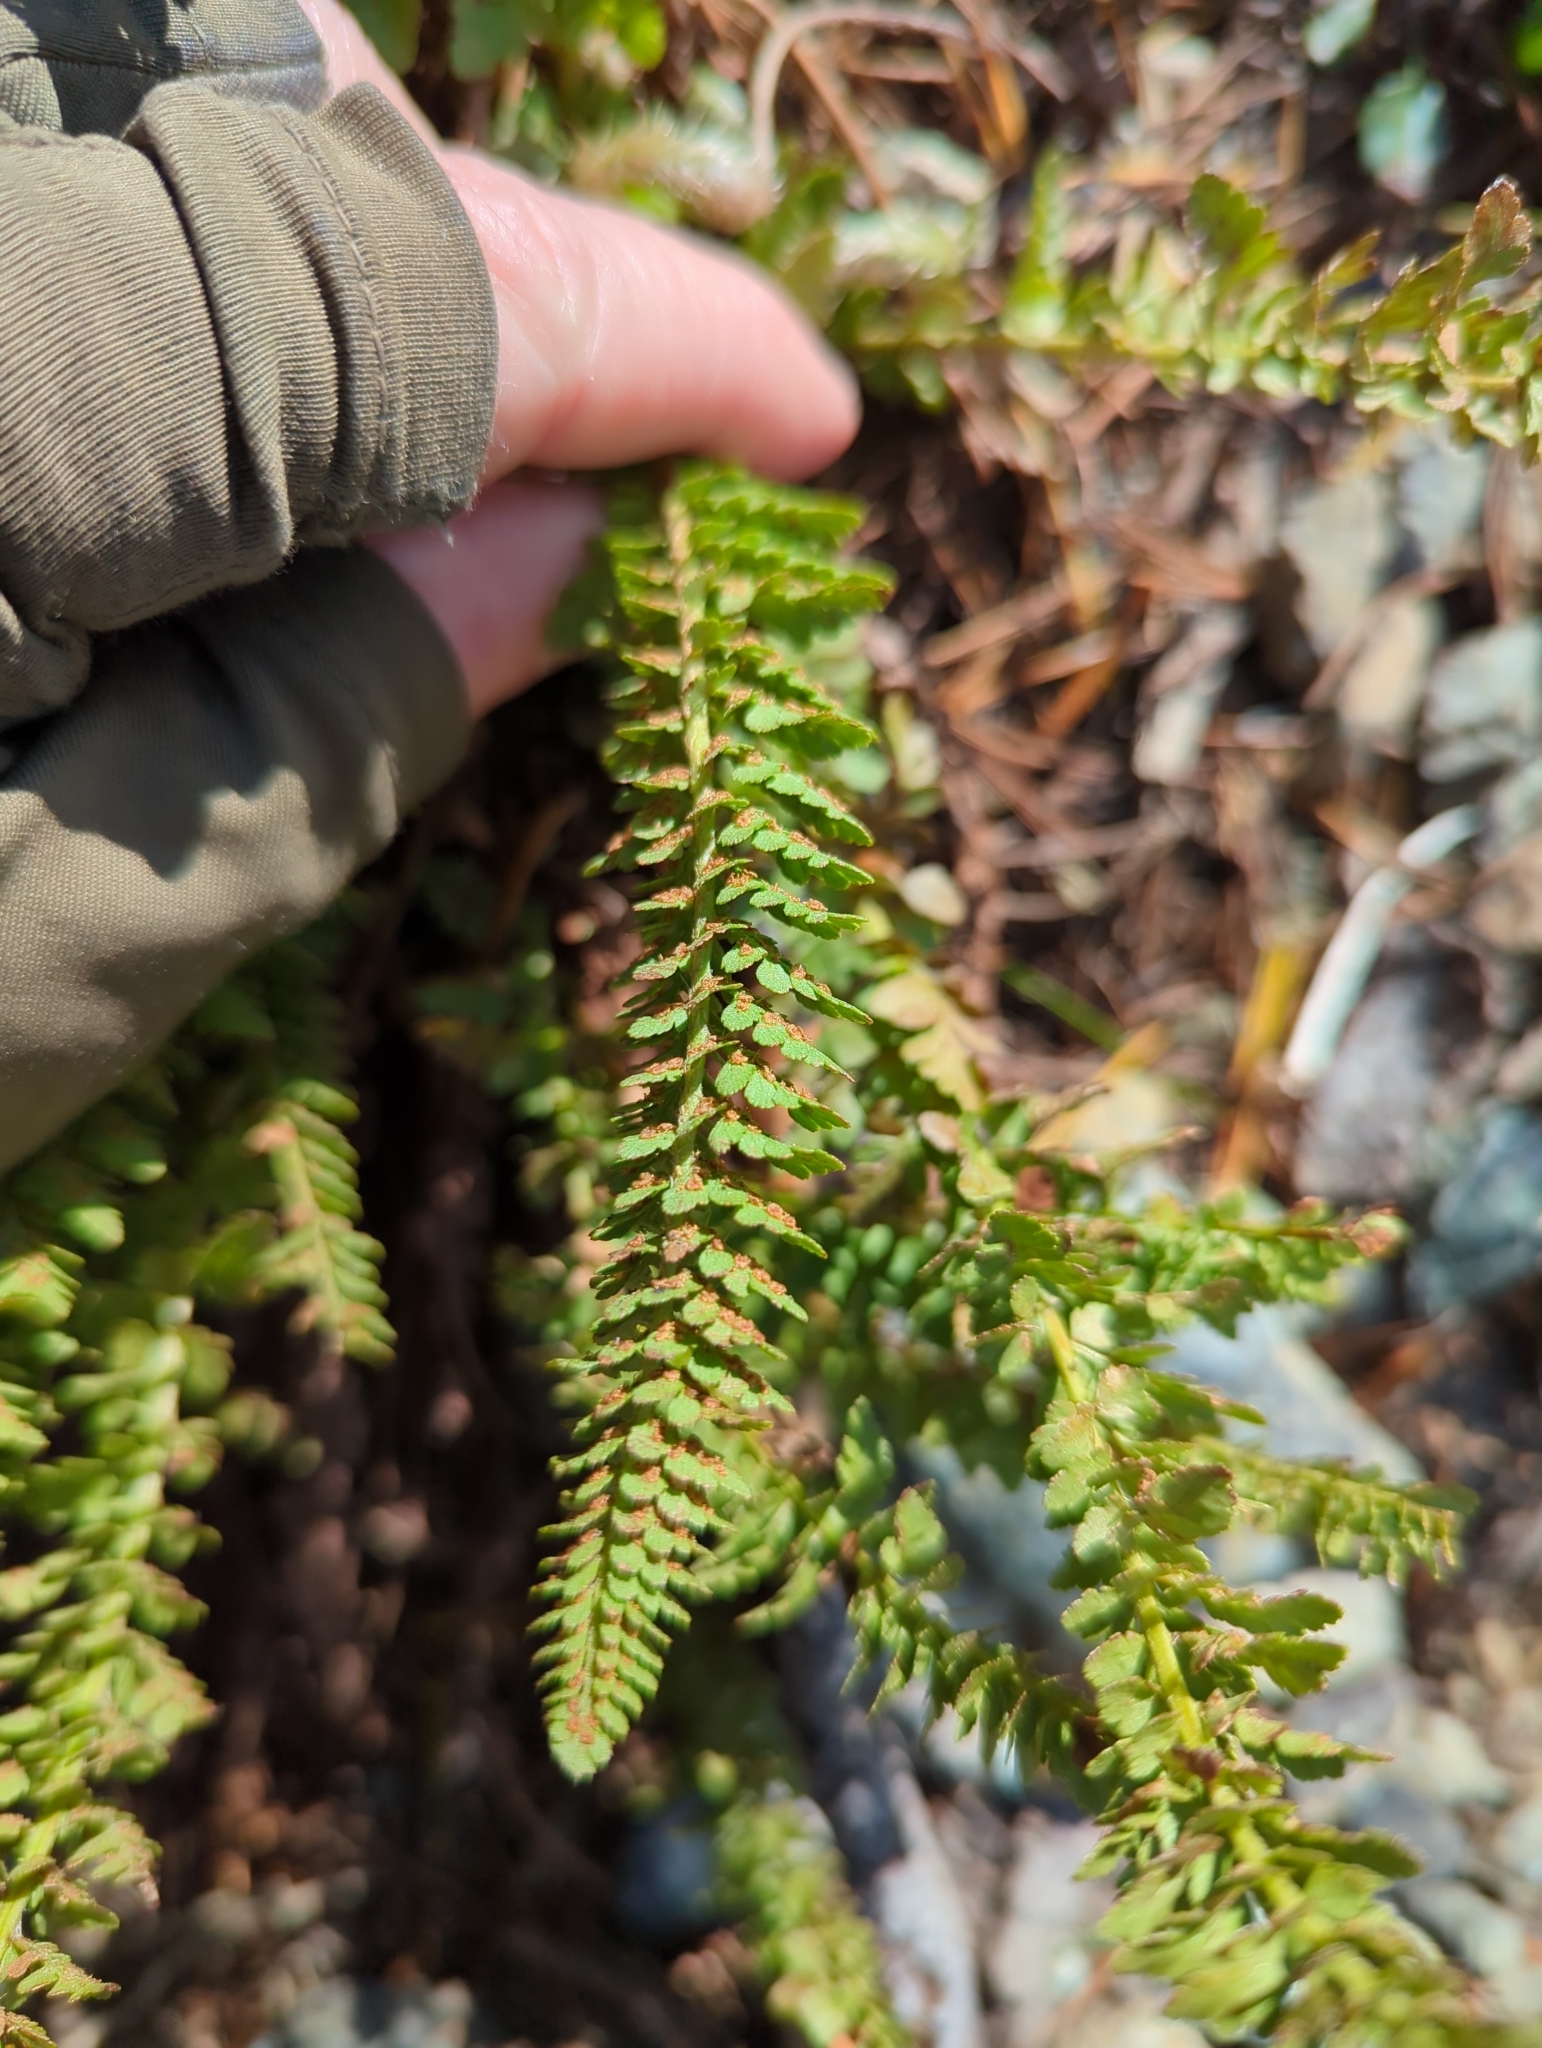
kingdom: Plantae
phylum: Tracheophyta
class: Polypodiopsida
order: Polypodiales
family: Dryopteridaceae
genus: Polystichum
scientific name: Polystichum lemmonii
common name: Lemmon's holly fern
